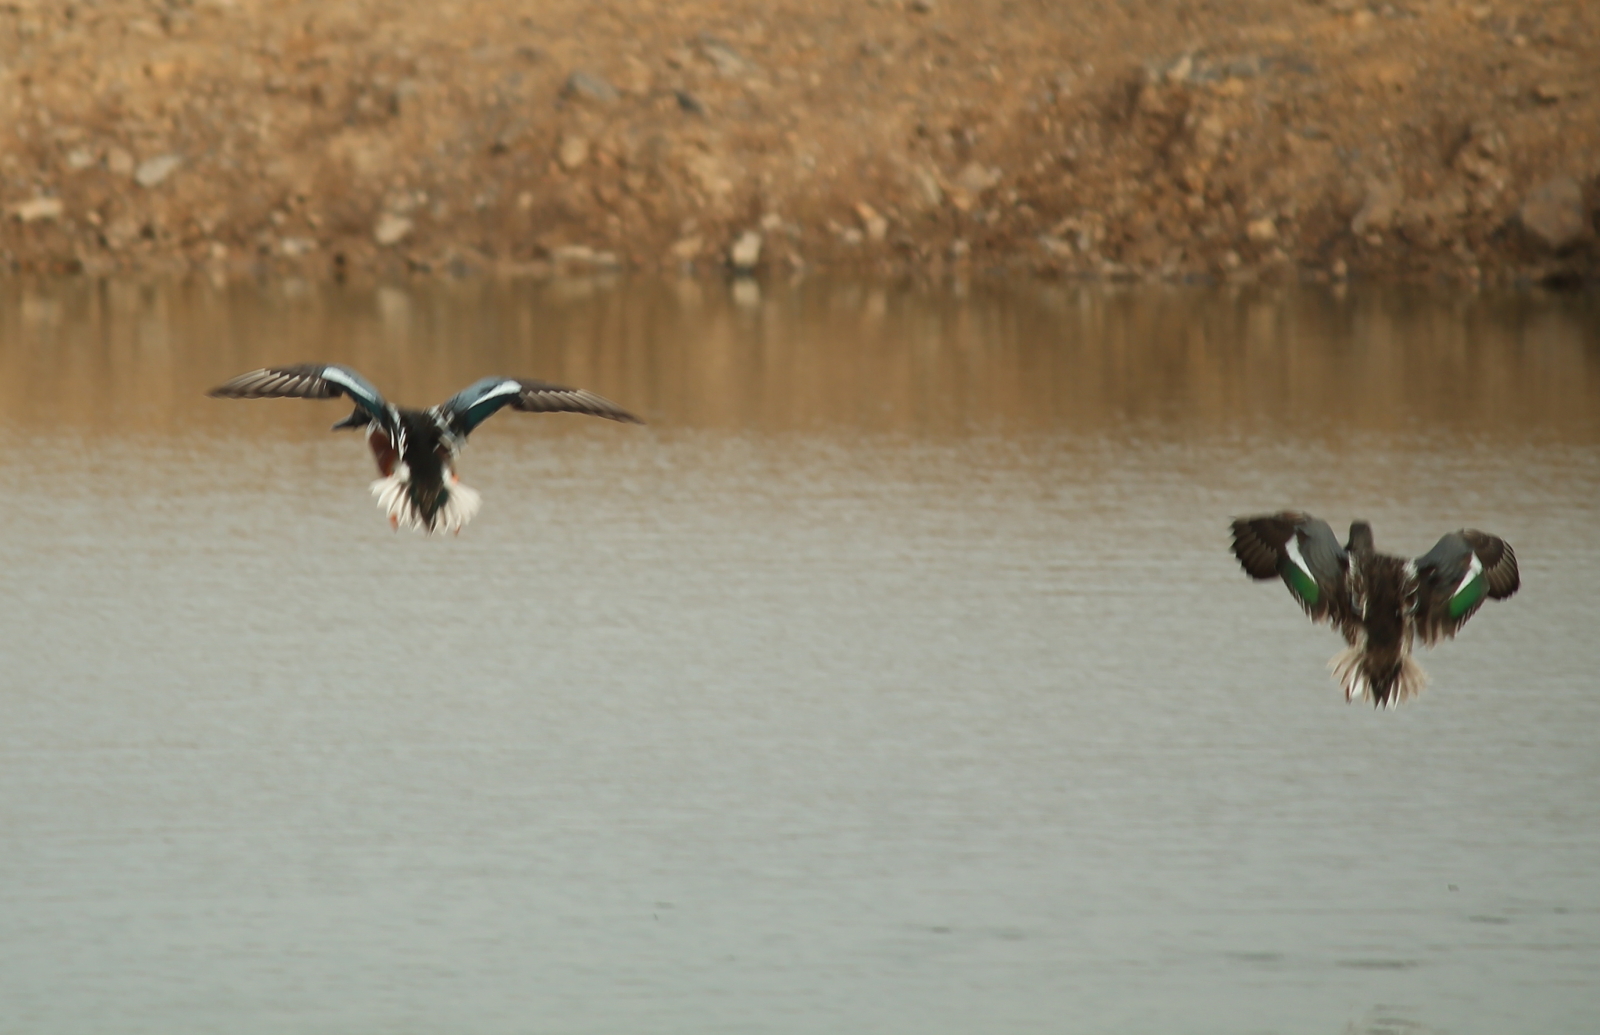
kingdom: Animalia
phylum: Chordata
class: Aves
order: Anseriformes
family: Anatidae
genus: Spatula
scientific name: Spatula clypeata
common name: Northern shoveler
